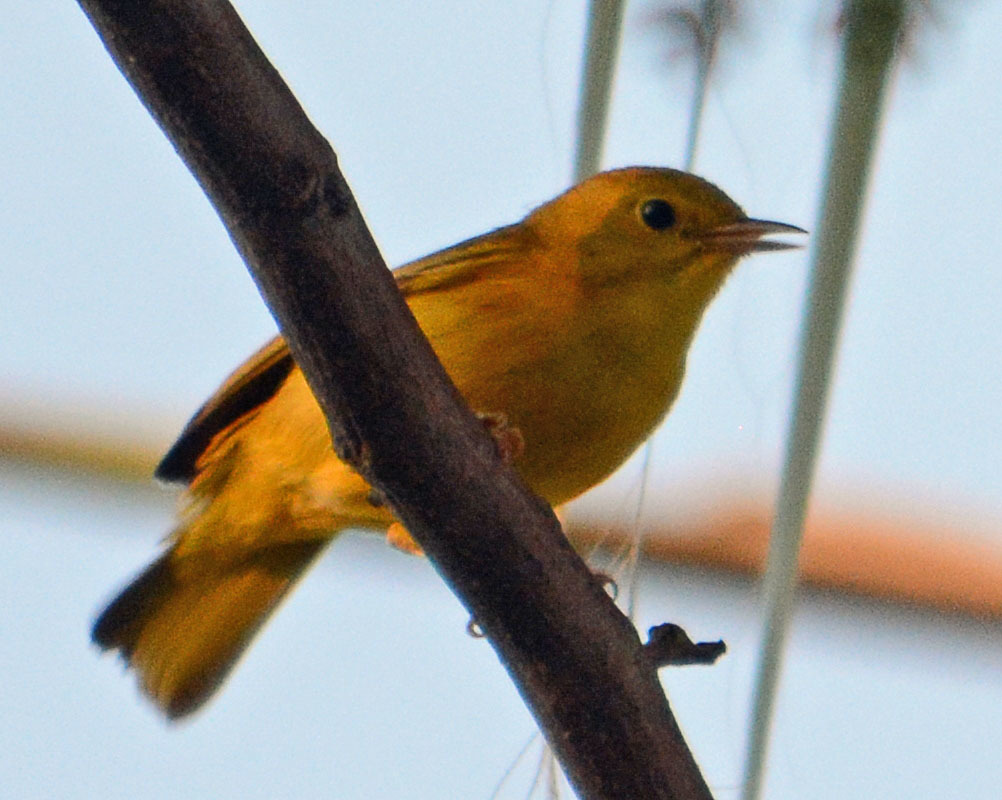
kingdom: Animalia
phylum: Chordata
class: Aves
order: Passeriformes
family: Parulidae
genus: Setophaga
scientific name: Setophaga petechia
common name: Yellow warbler
